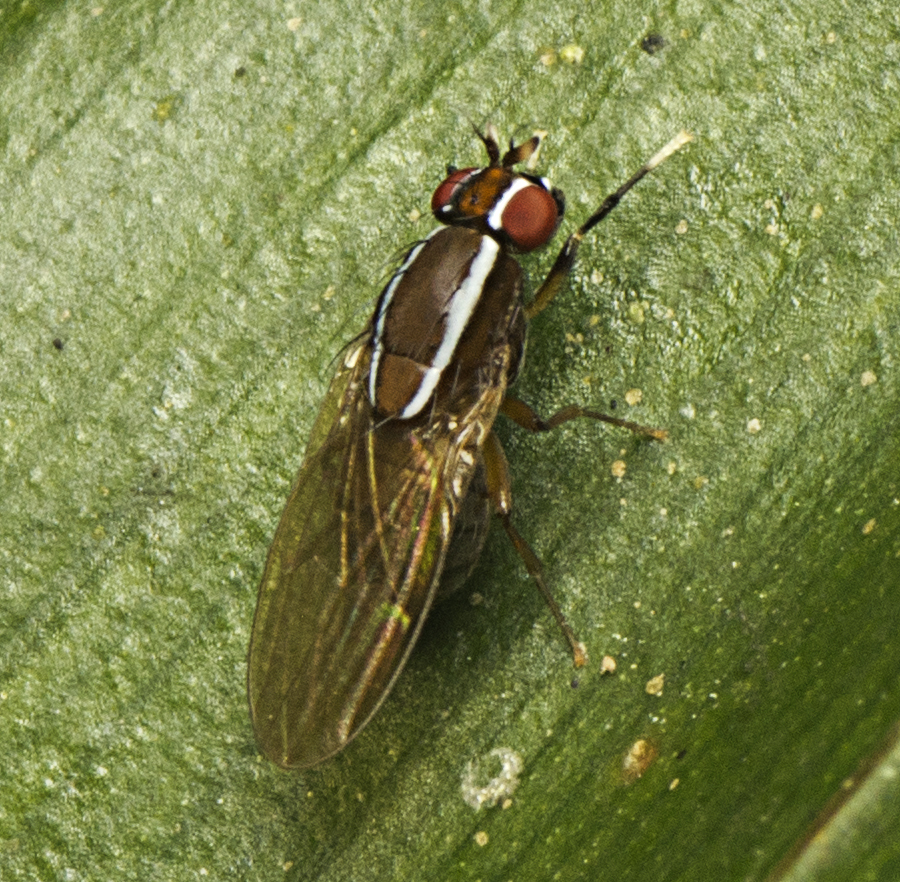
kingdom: Animalia
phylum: Arthropoda
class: Insecta
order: Diptera
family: Lauxaniidae
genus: Poecilohetaerus
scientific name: Poecilohetaerus pinnatus
